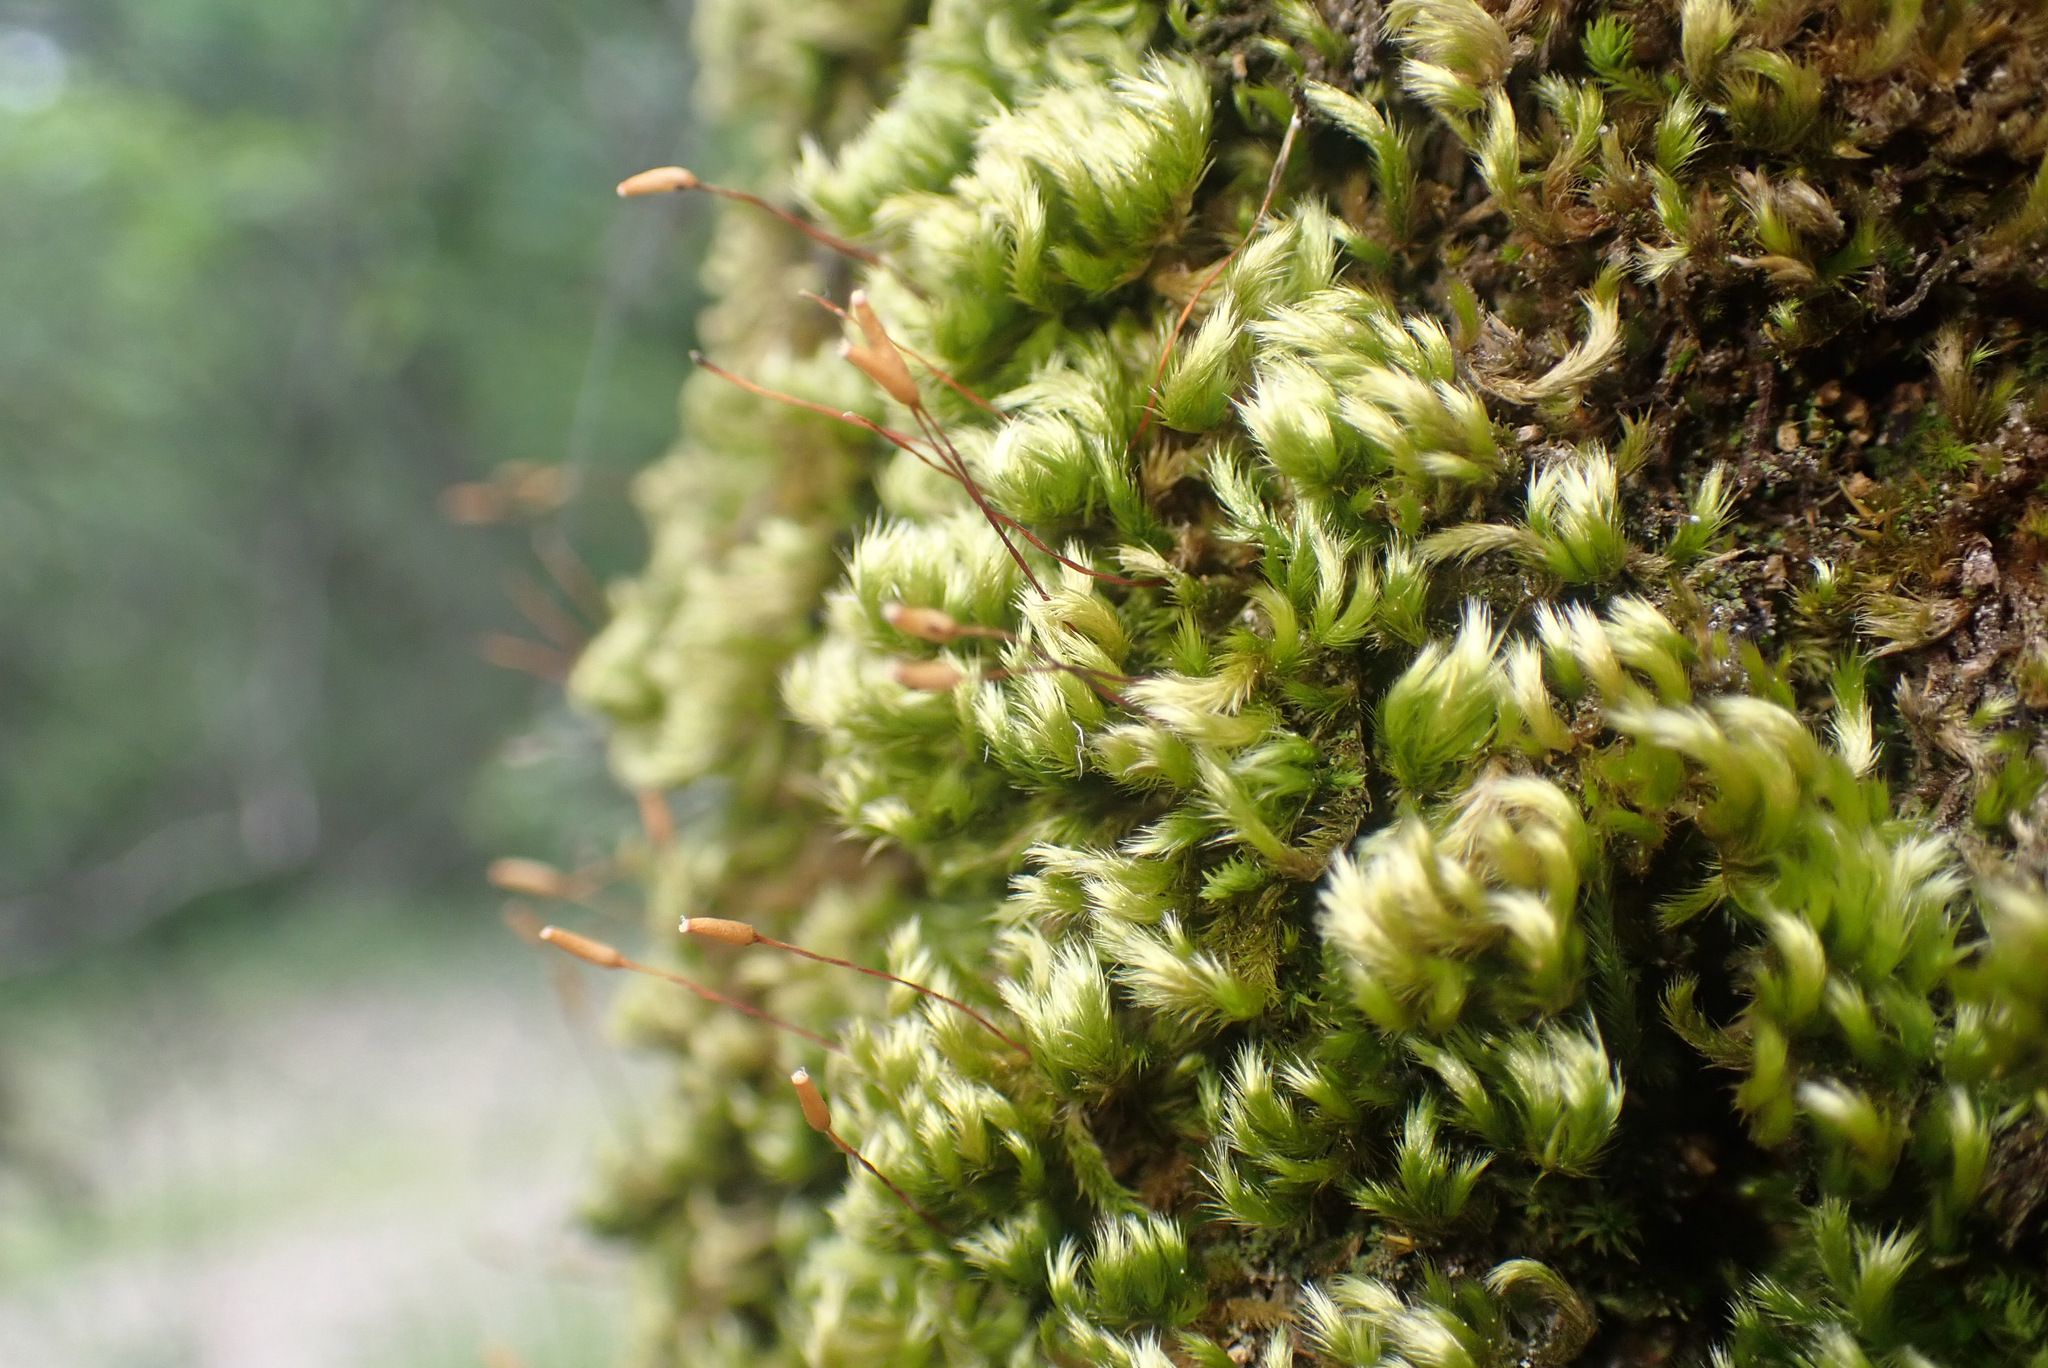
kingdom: Plantae
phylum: Bryophyta
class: Bryopsida
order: Hypnales
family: Brachytheciaceae
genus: Homalothecium
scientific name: Homalothecium sericeum
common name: Silky wall feather-moss
